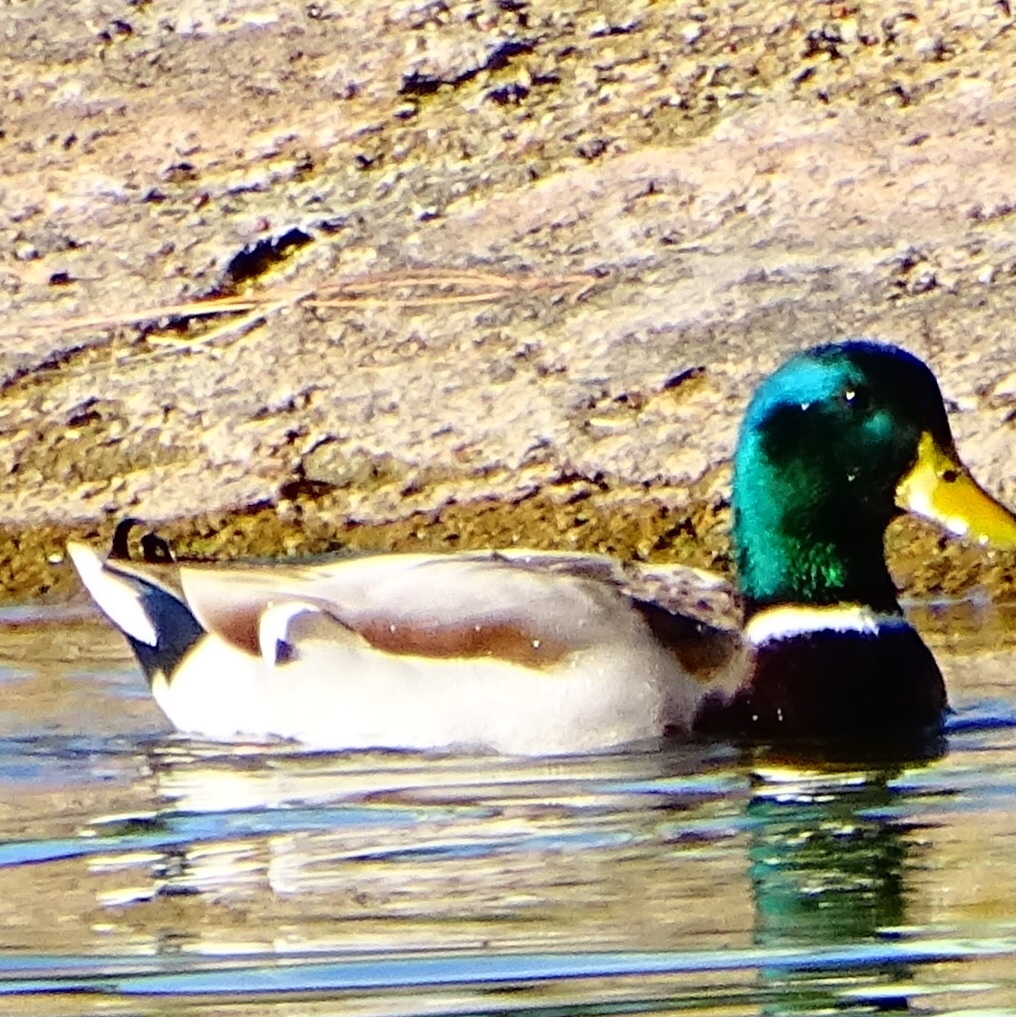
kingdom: Animalia
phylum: Chordata
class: Aves
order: Anseriformes
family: Anatidae
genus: Anas
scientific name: Anas platyrhynchos
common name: Mallard
